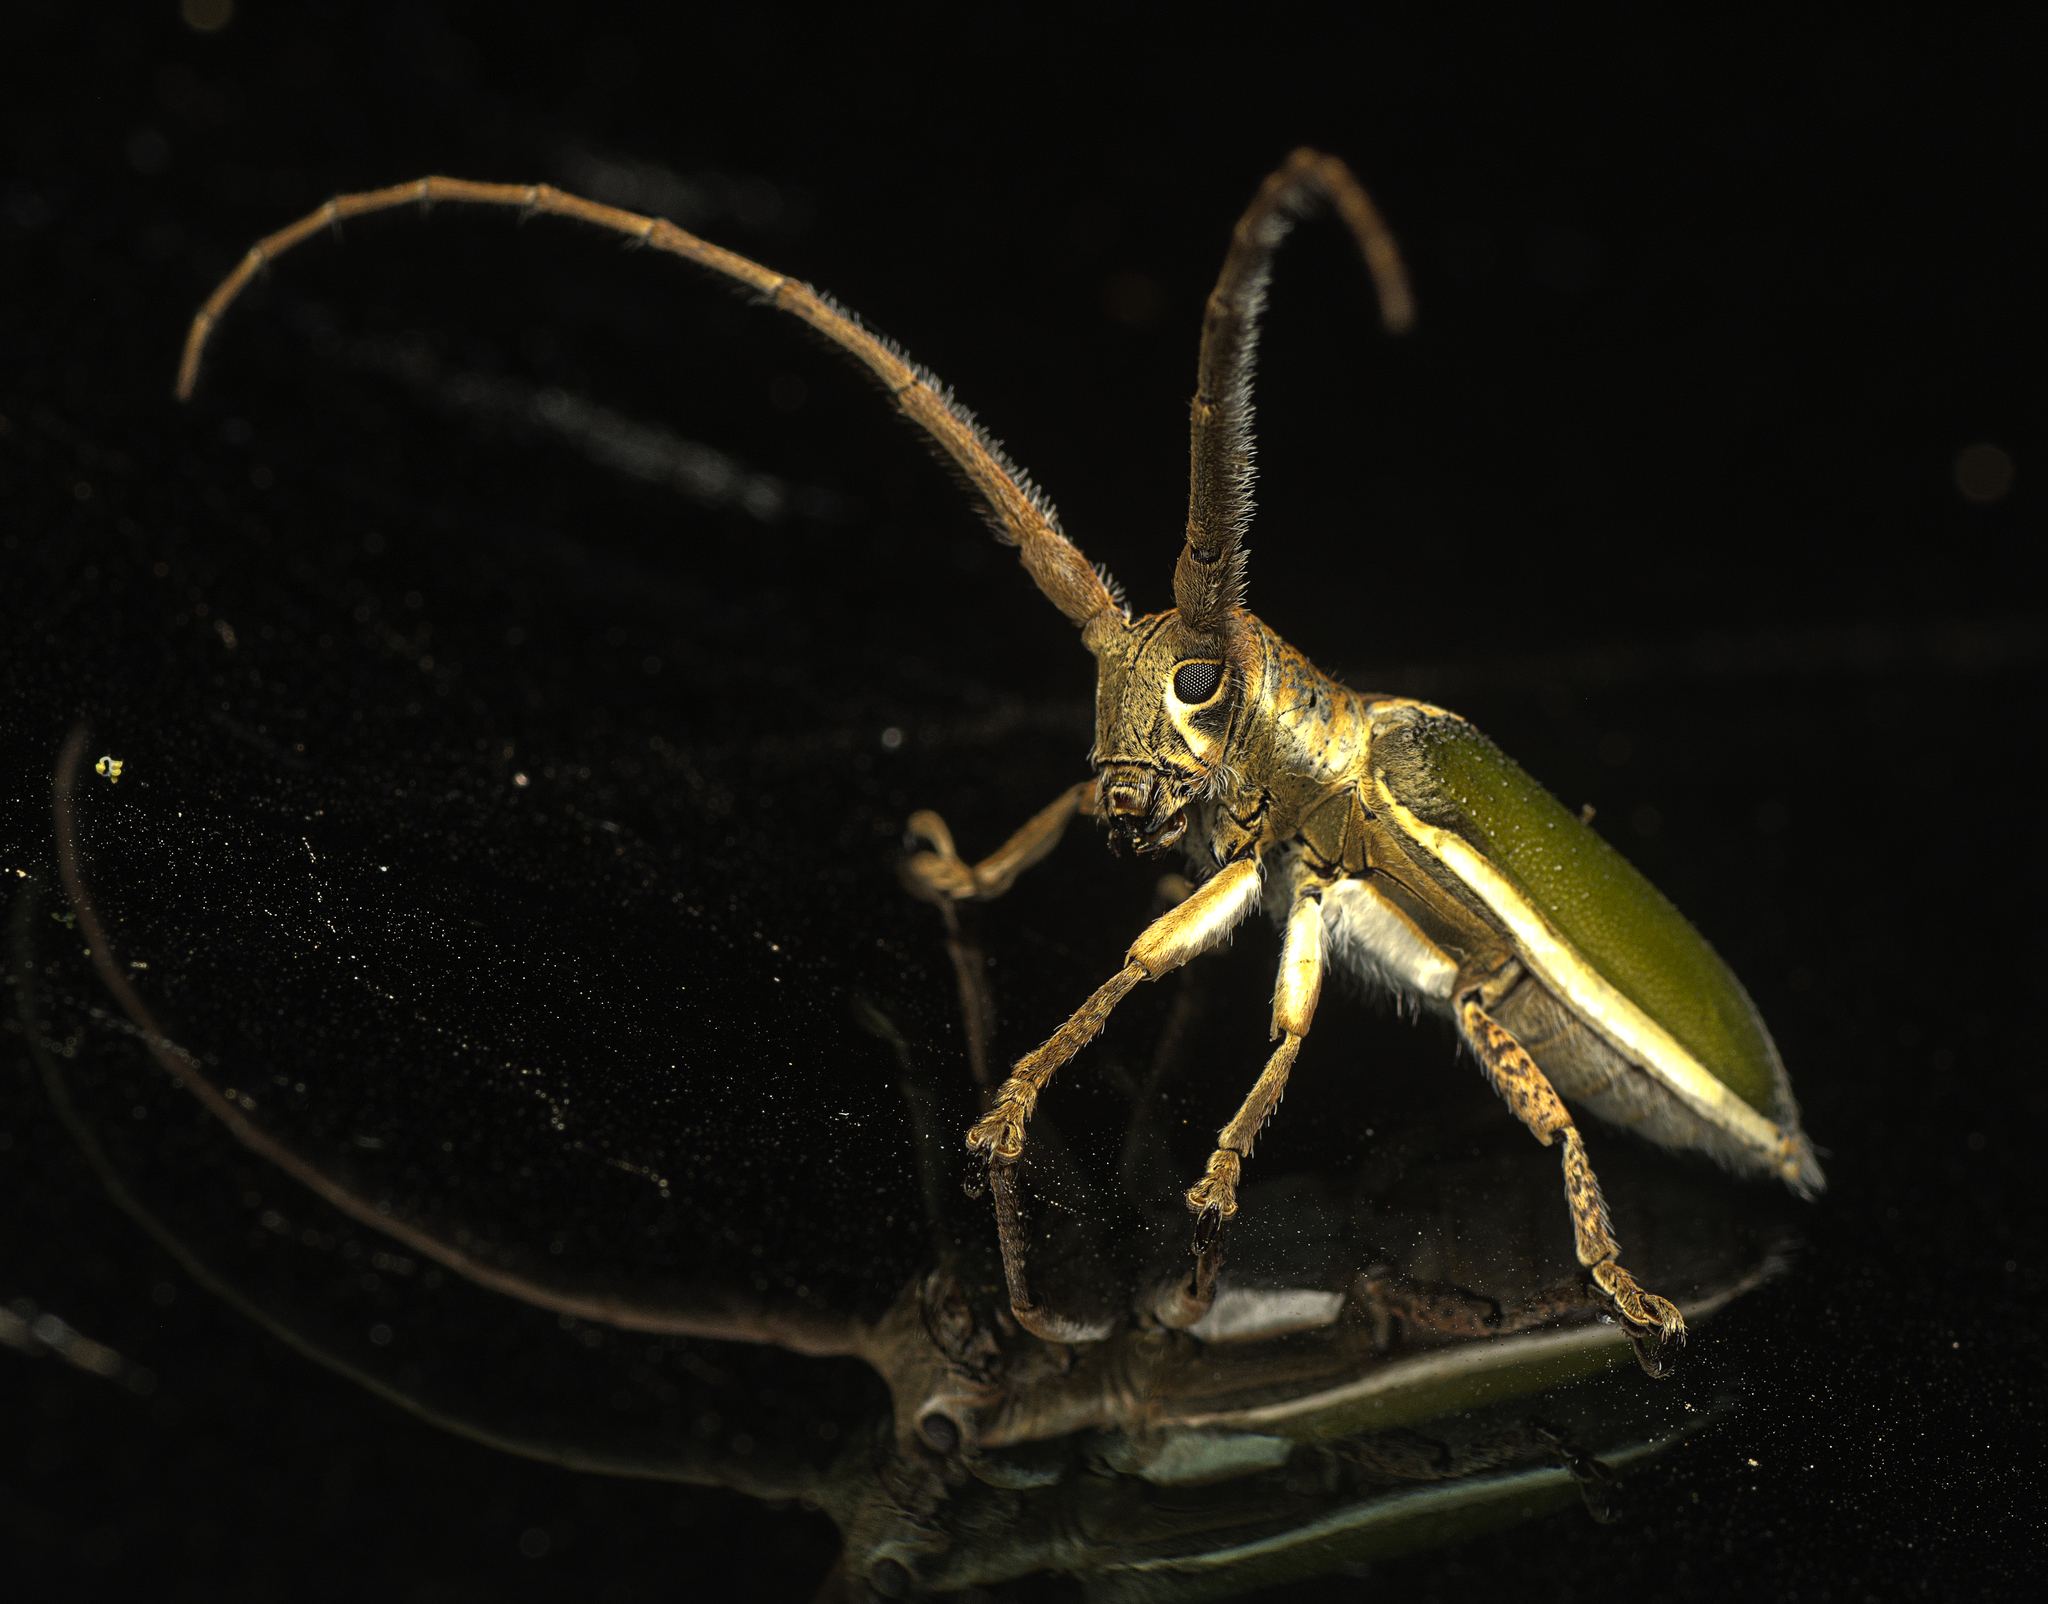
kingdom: Animalia
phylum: Arthropoda
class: Insecta
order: Coleoptera
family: Cerambycidae
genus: Rhytiphora
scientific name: Rhytiphora nigrovirens
